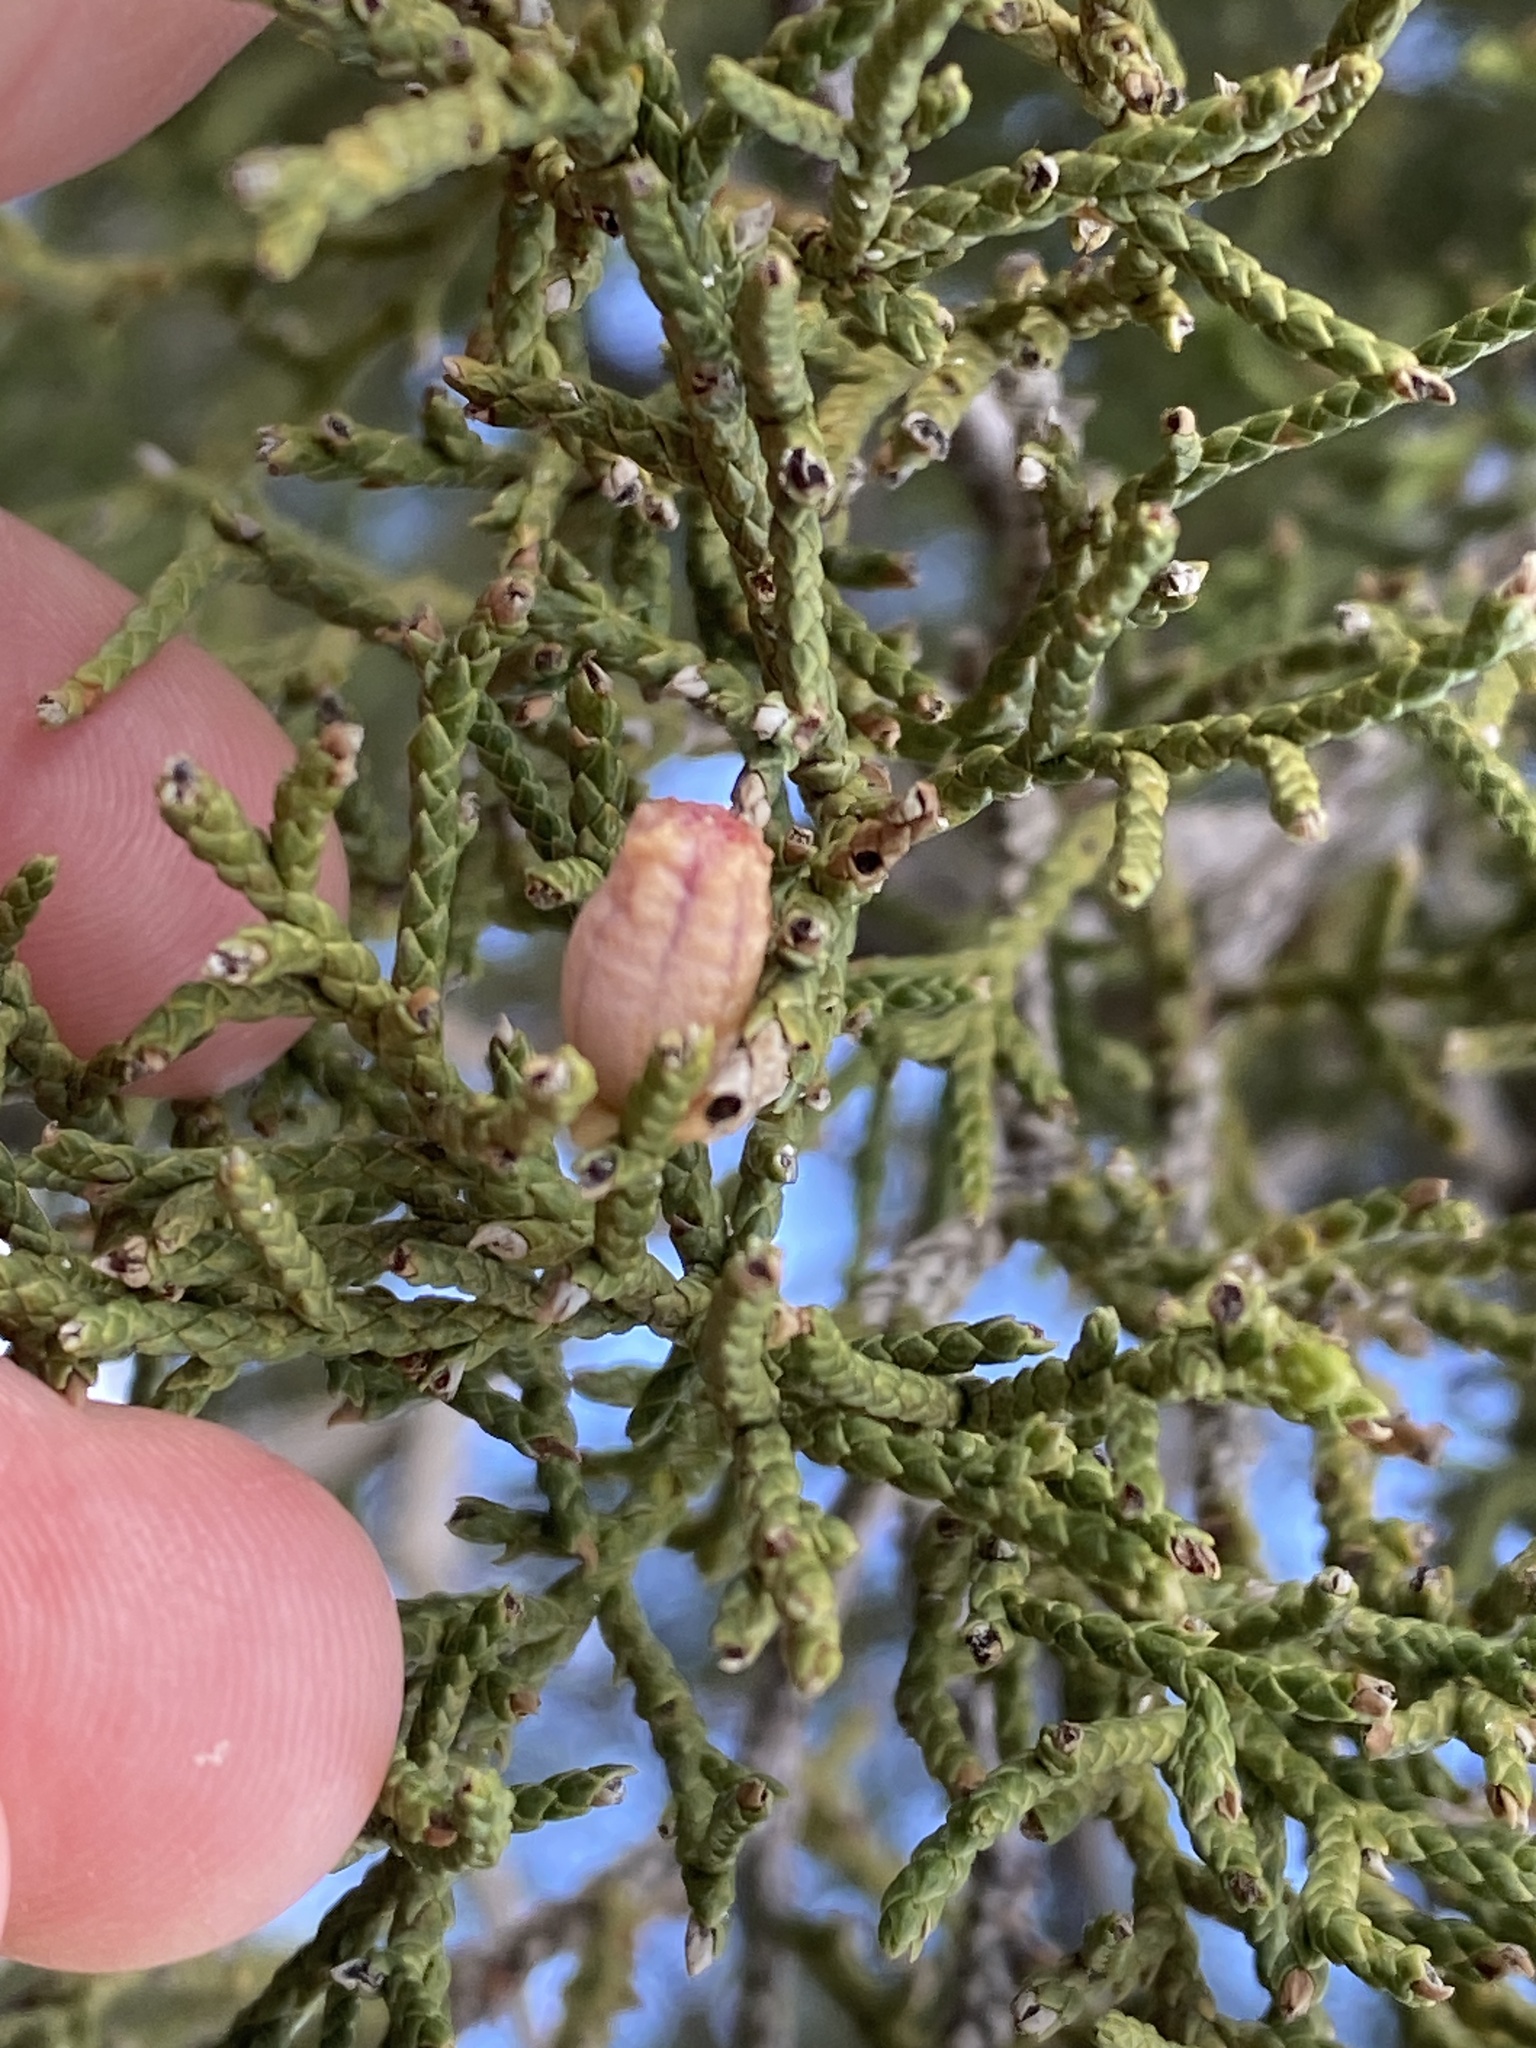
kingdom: Plantae
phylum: Tracheophyta
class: Pinopsida
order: Pinales
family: Cupressaceae
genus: Juniperus
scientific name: Juniperus arizonica
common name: Arizona juniper
